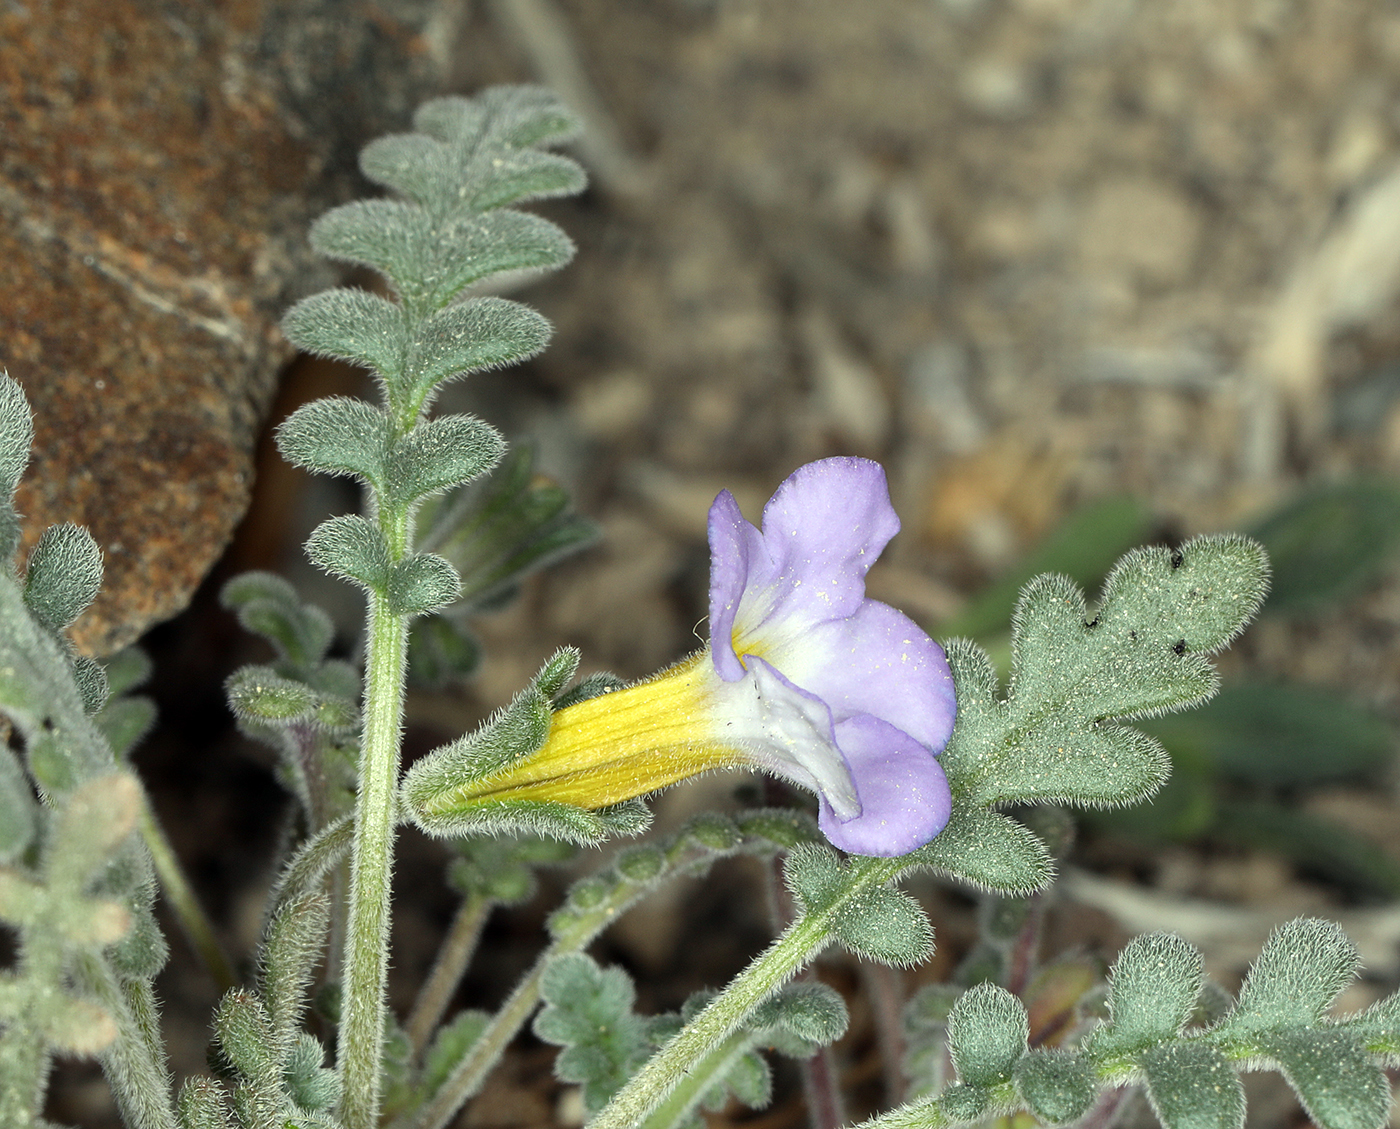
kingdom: Plantae
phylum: Tracheophyta
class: Magnoliopsida
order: Boraginales
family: Hydrophyllaceae
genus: Phacelia
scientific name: Phacelia fremontii
